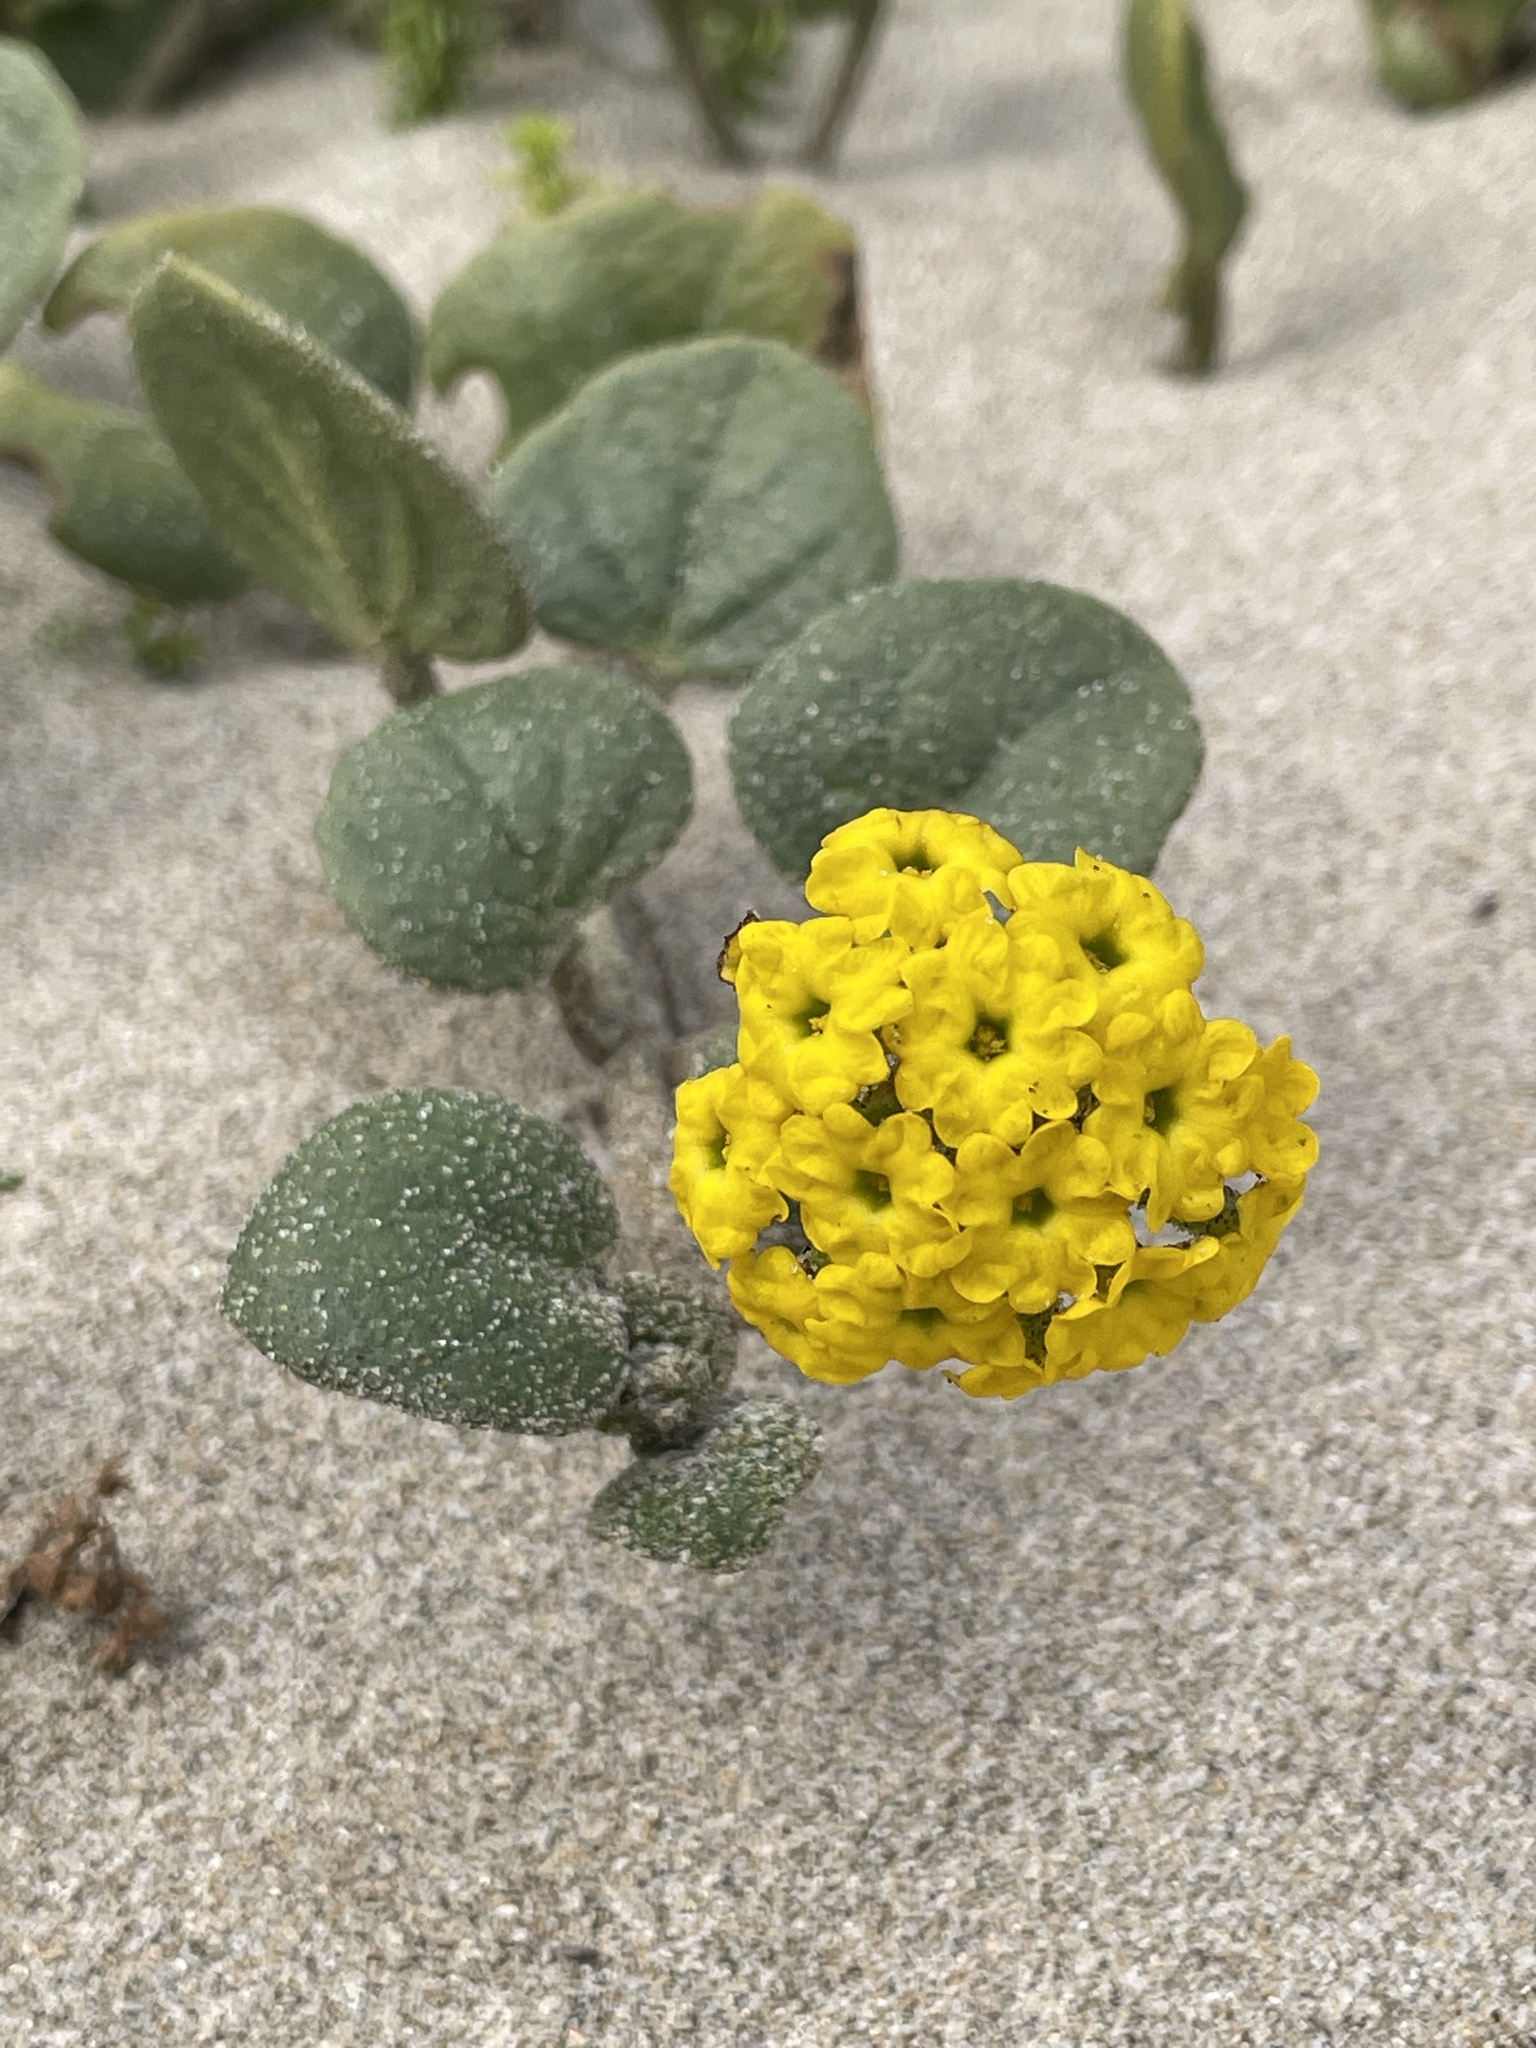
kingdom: Plantae
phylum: Tracheophyta
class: Magnoliopsida
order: Caryophyllales
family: Nyctaginaceae
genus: Abronia
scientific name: Abronia latifolia
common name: Yellow sand-verbena
